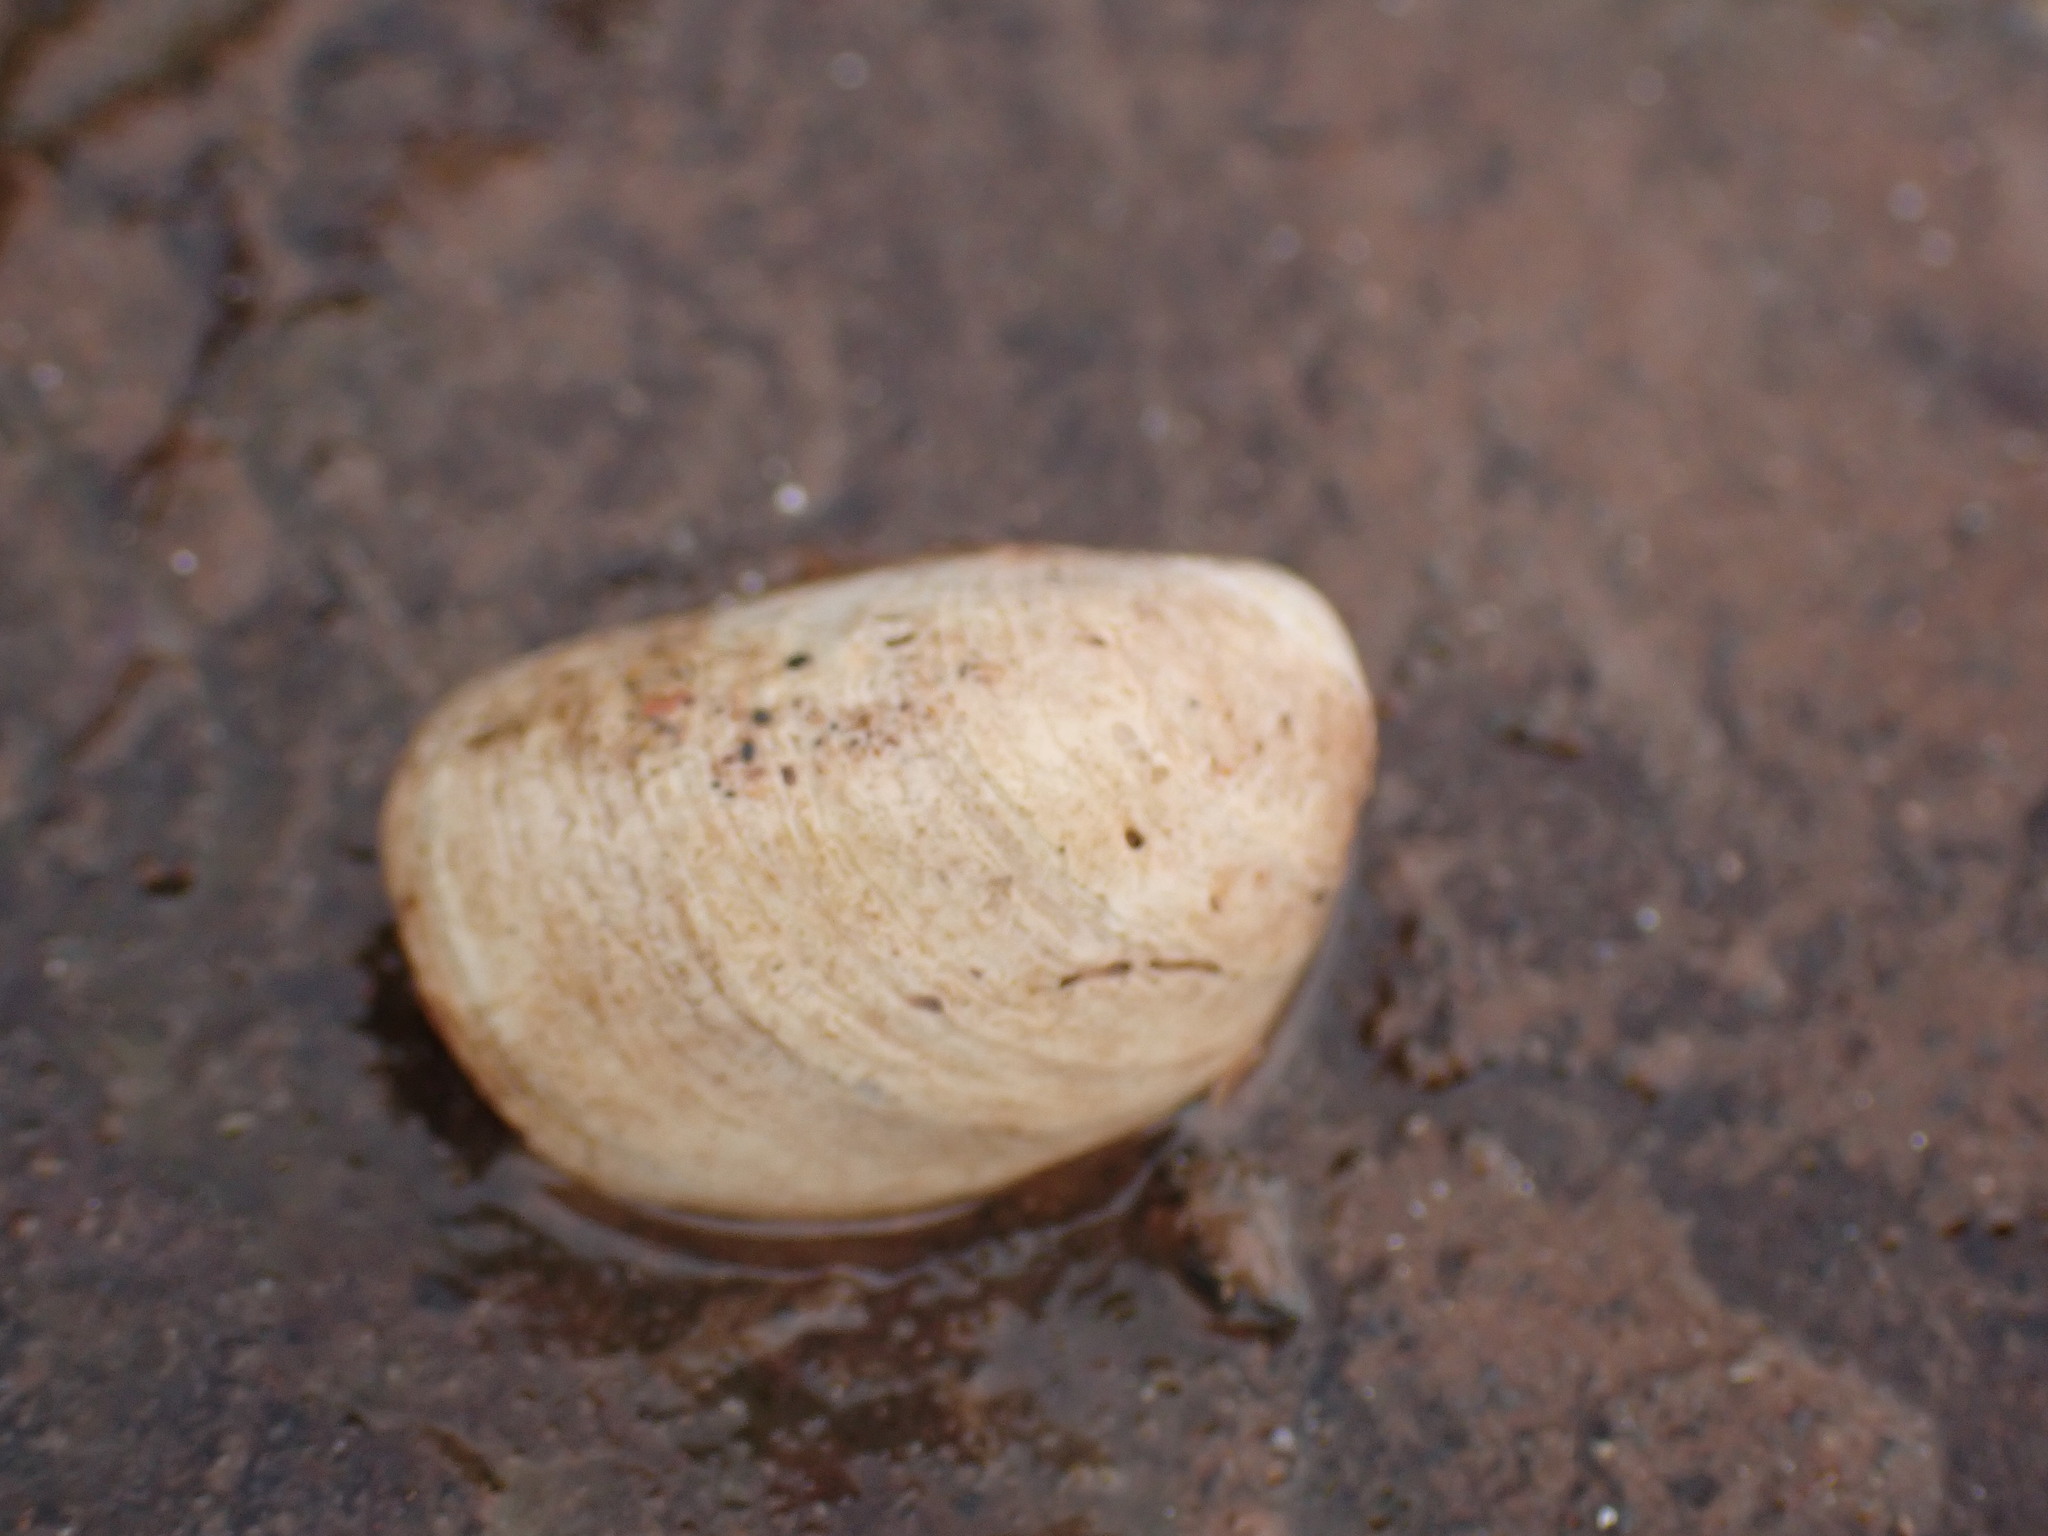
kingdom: Animalia
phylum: Mollusca
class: Gastropoda
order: Littorinimorpha
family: Calyptraeidae
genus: Crepidula
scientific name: Crepidula fornicata
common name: Slipper limpet
